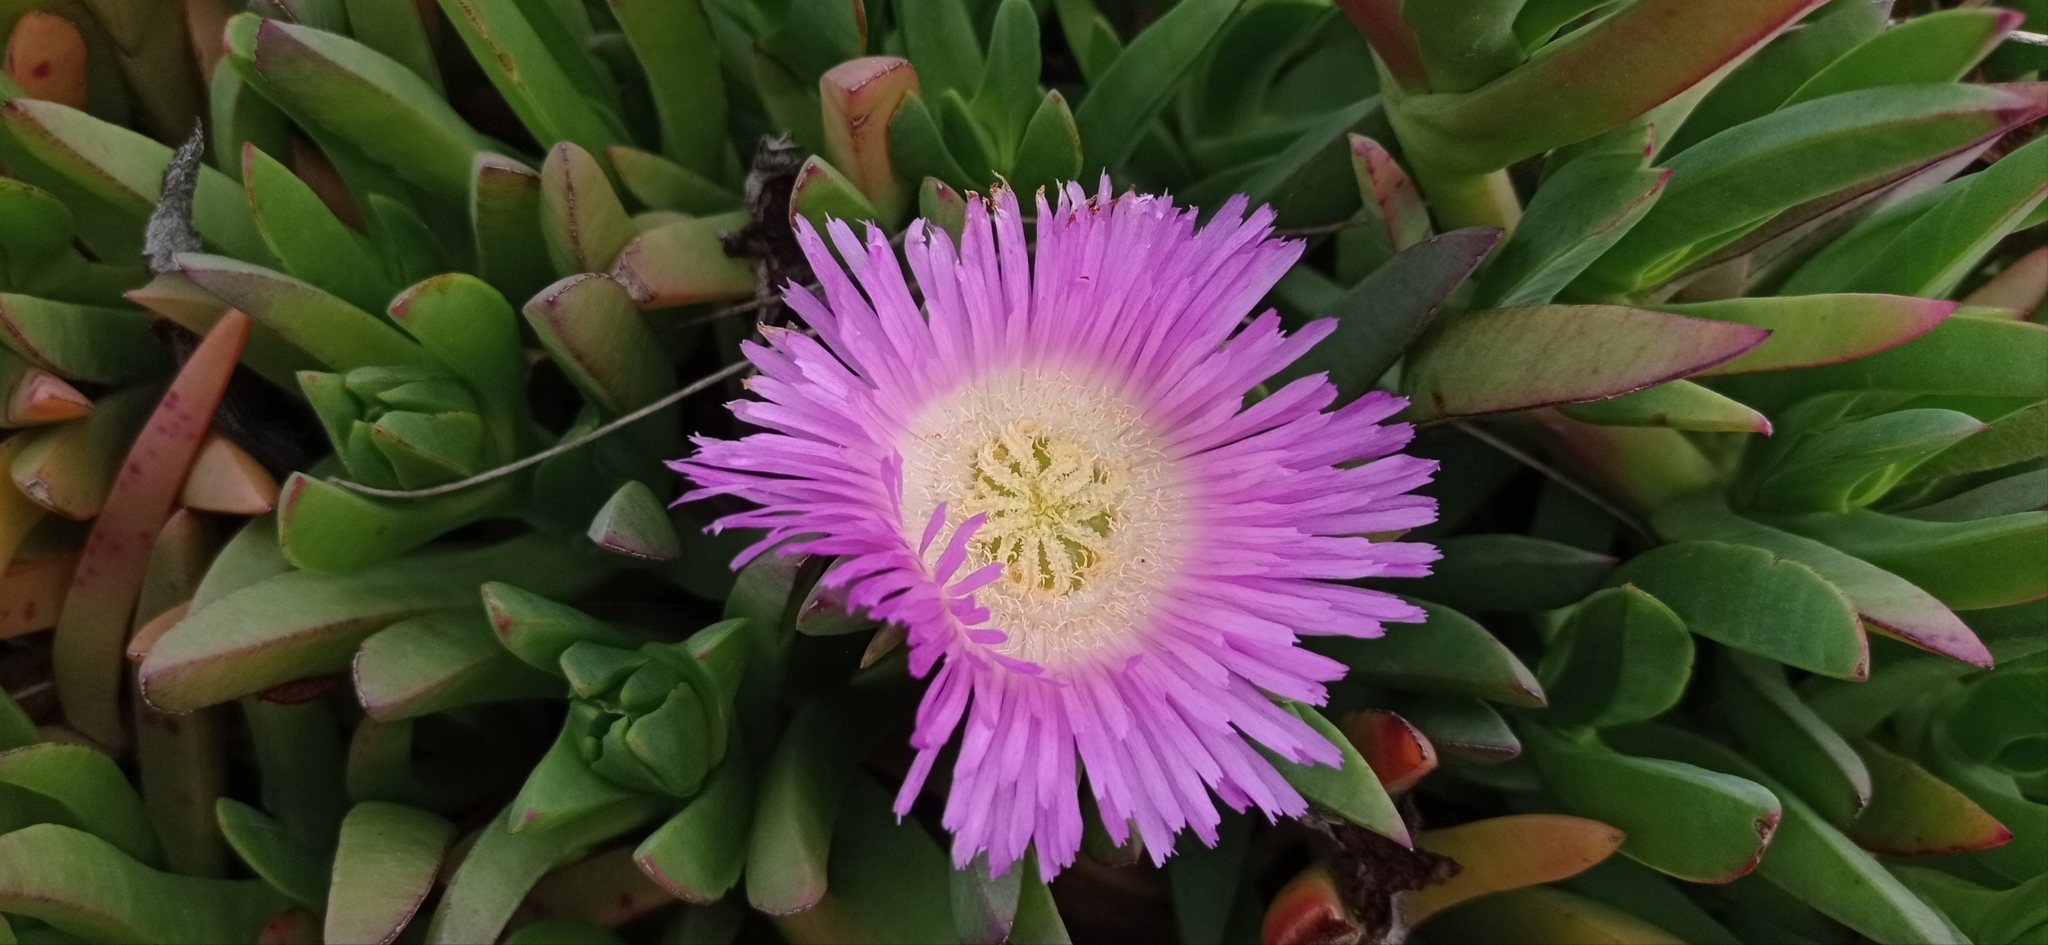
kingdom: Plantae
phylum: Tracheophyta
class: Magnoliopsida
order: Caryophyllales
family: Aizoaceae
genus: Carpobrotus
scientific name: Carpobrotus chilensis
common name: Sea fig
